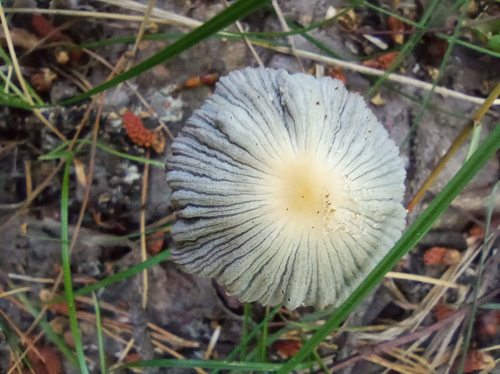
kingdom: Fungi
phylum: Basidiomycota
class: Agaricomycetes
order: Agaricales
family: Psathyrellaceae
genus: Tulosesus
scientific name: Tulosesus angulatus
